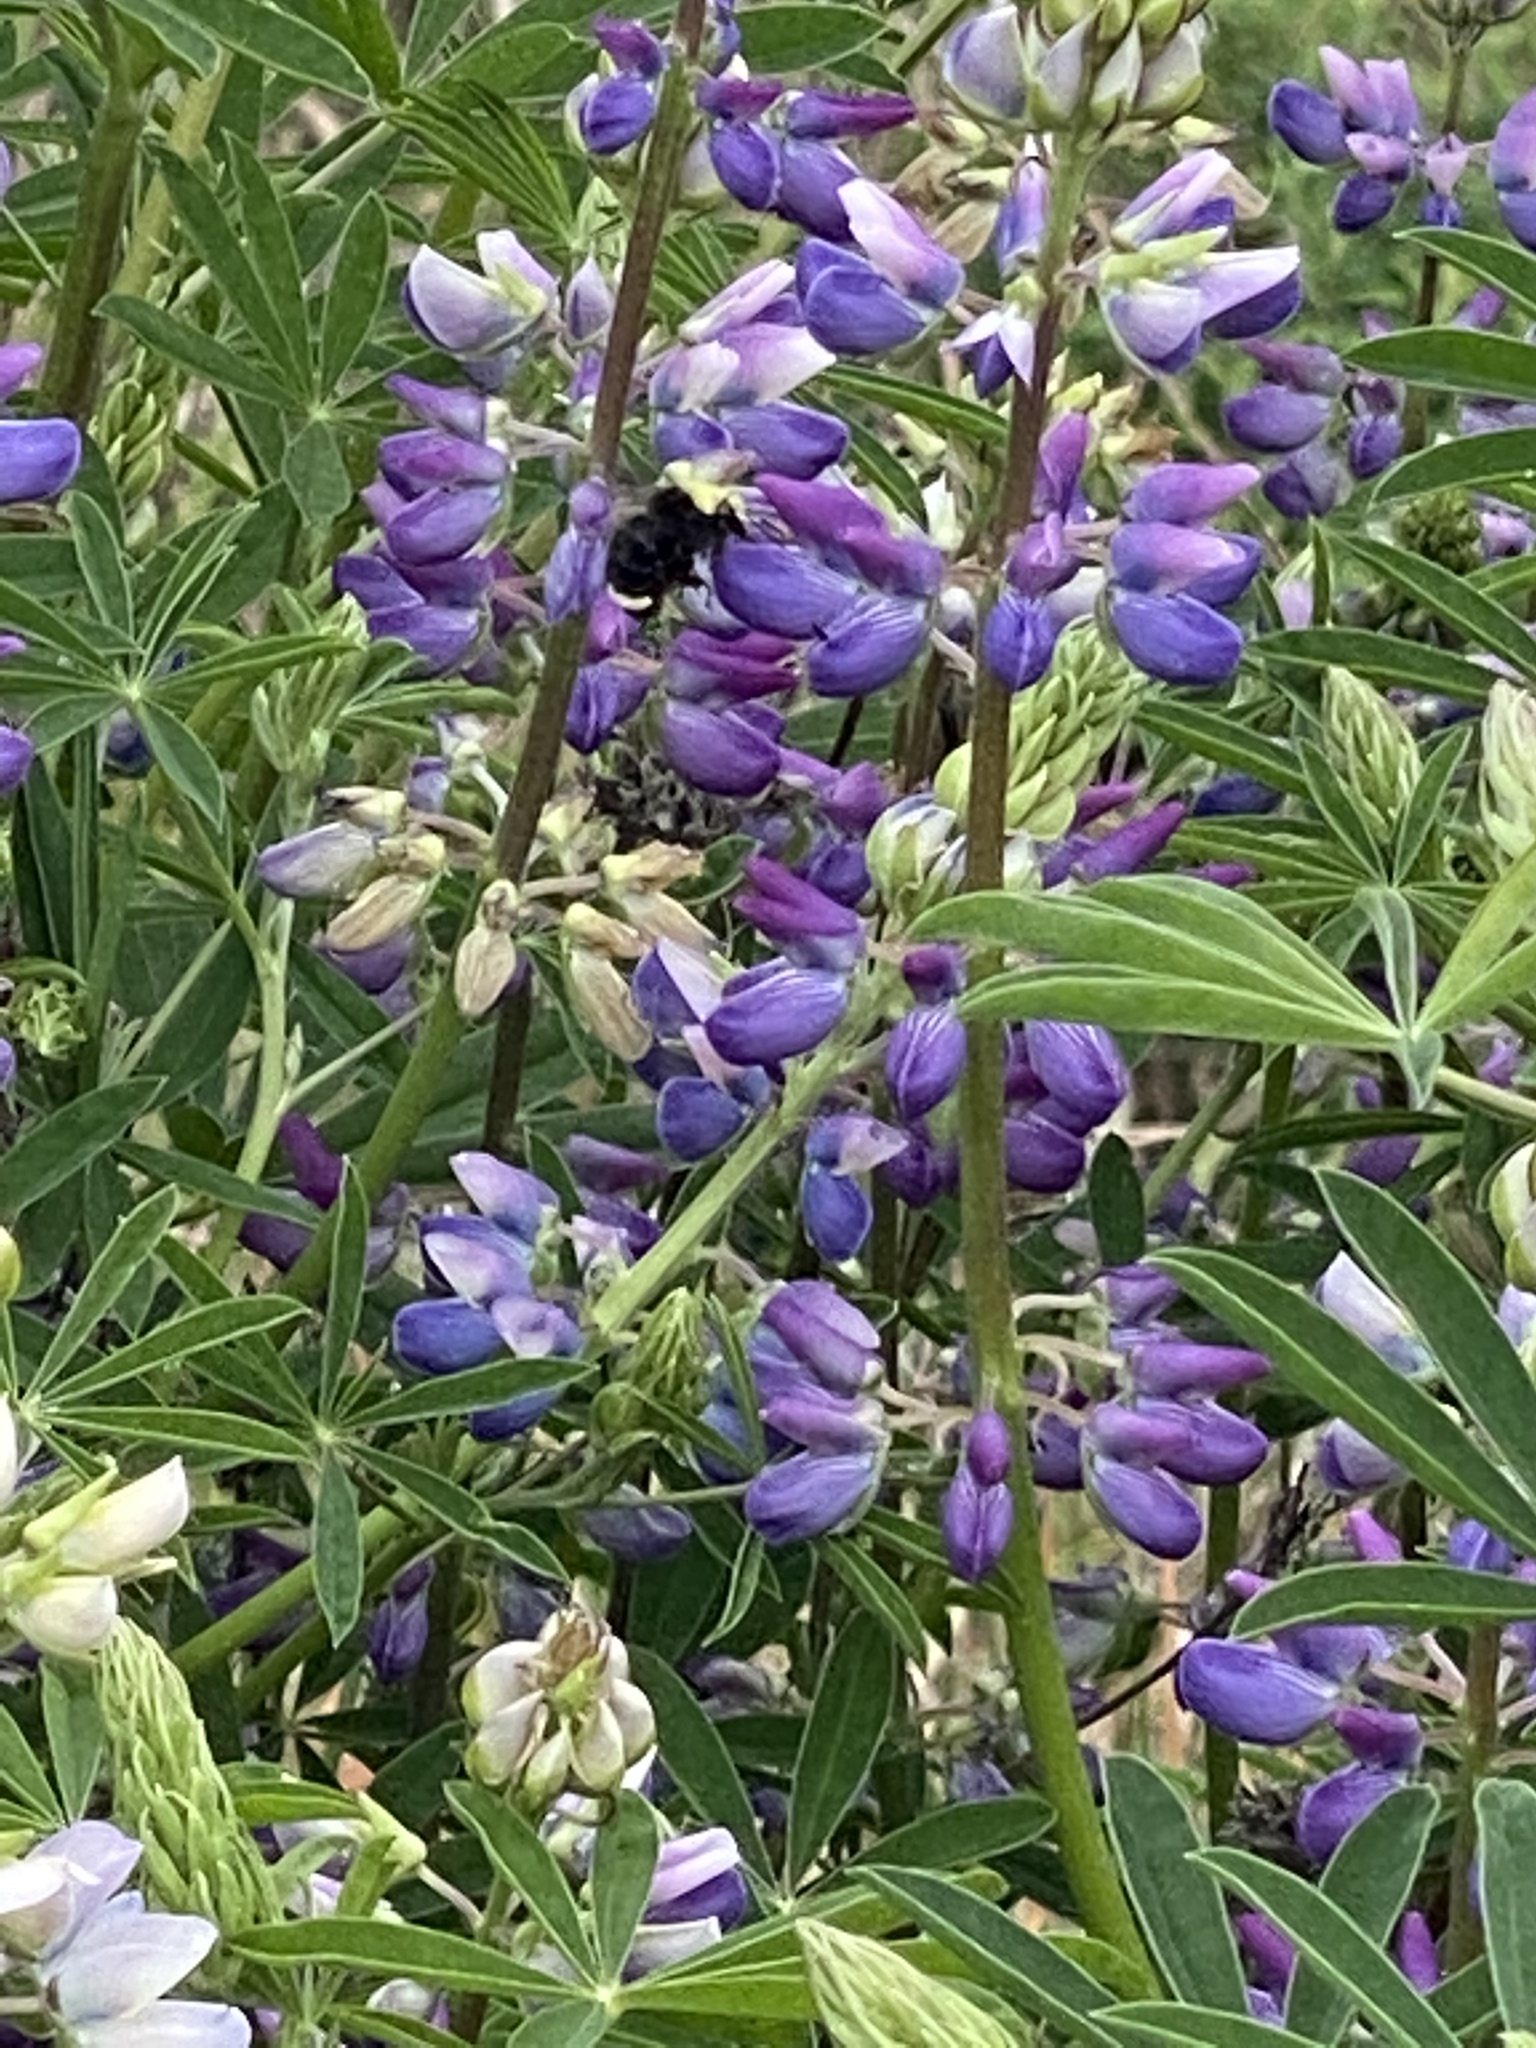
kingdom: Animalia
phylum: Arthropoda
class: Insecta
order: Hymenoptera
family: Apidae
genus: Bombus
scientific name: Bombus vosnesenskii
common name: Vosnesensky bumble bee
